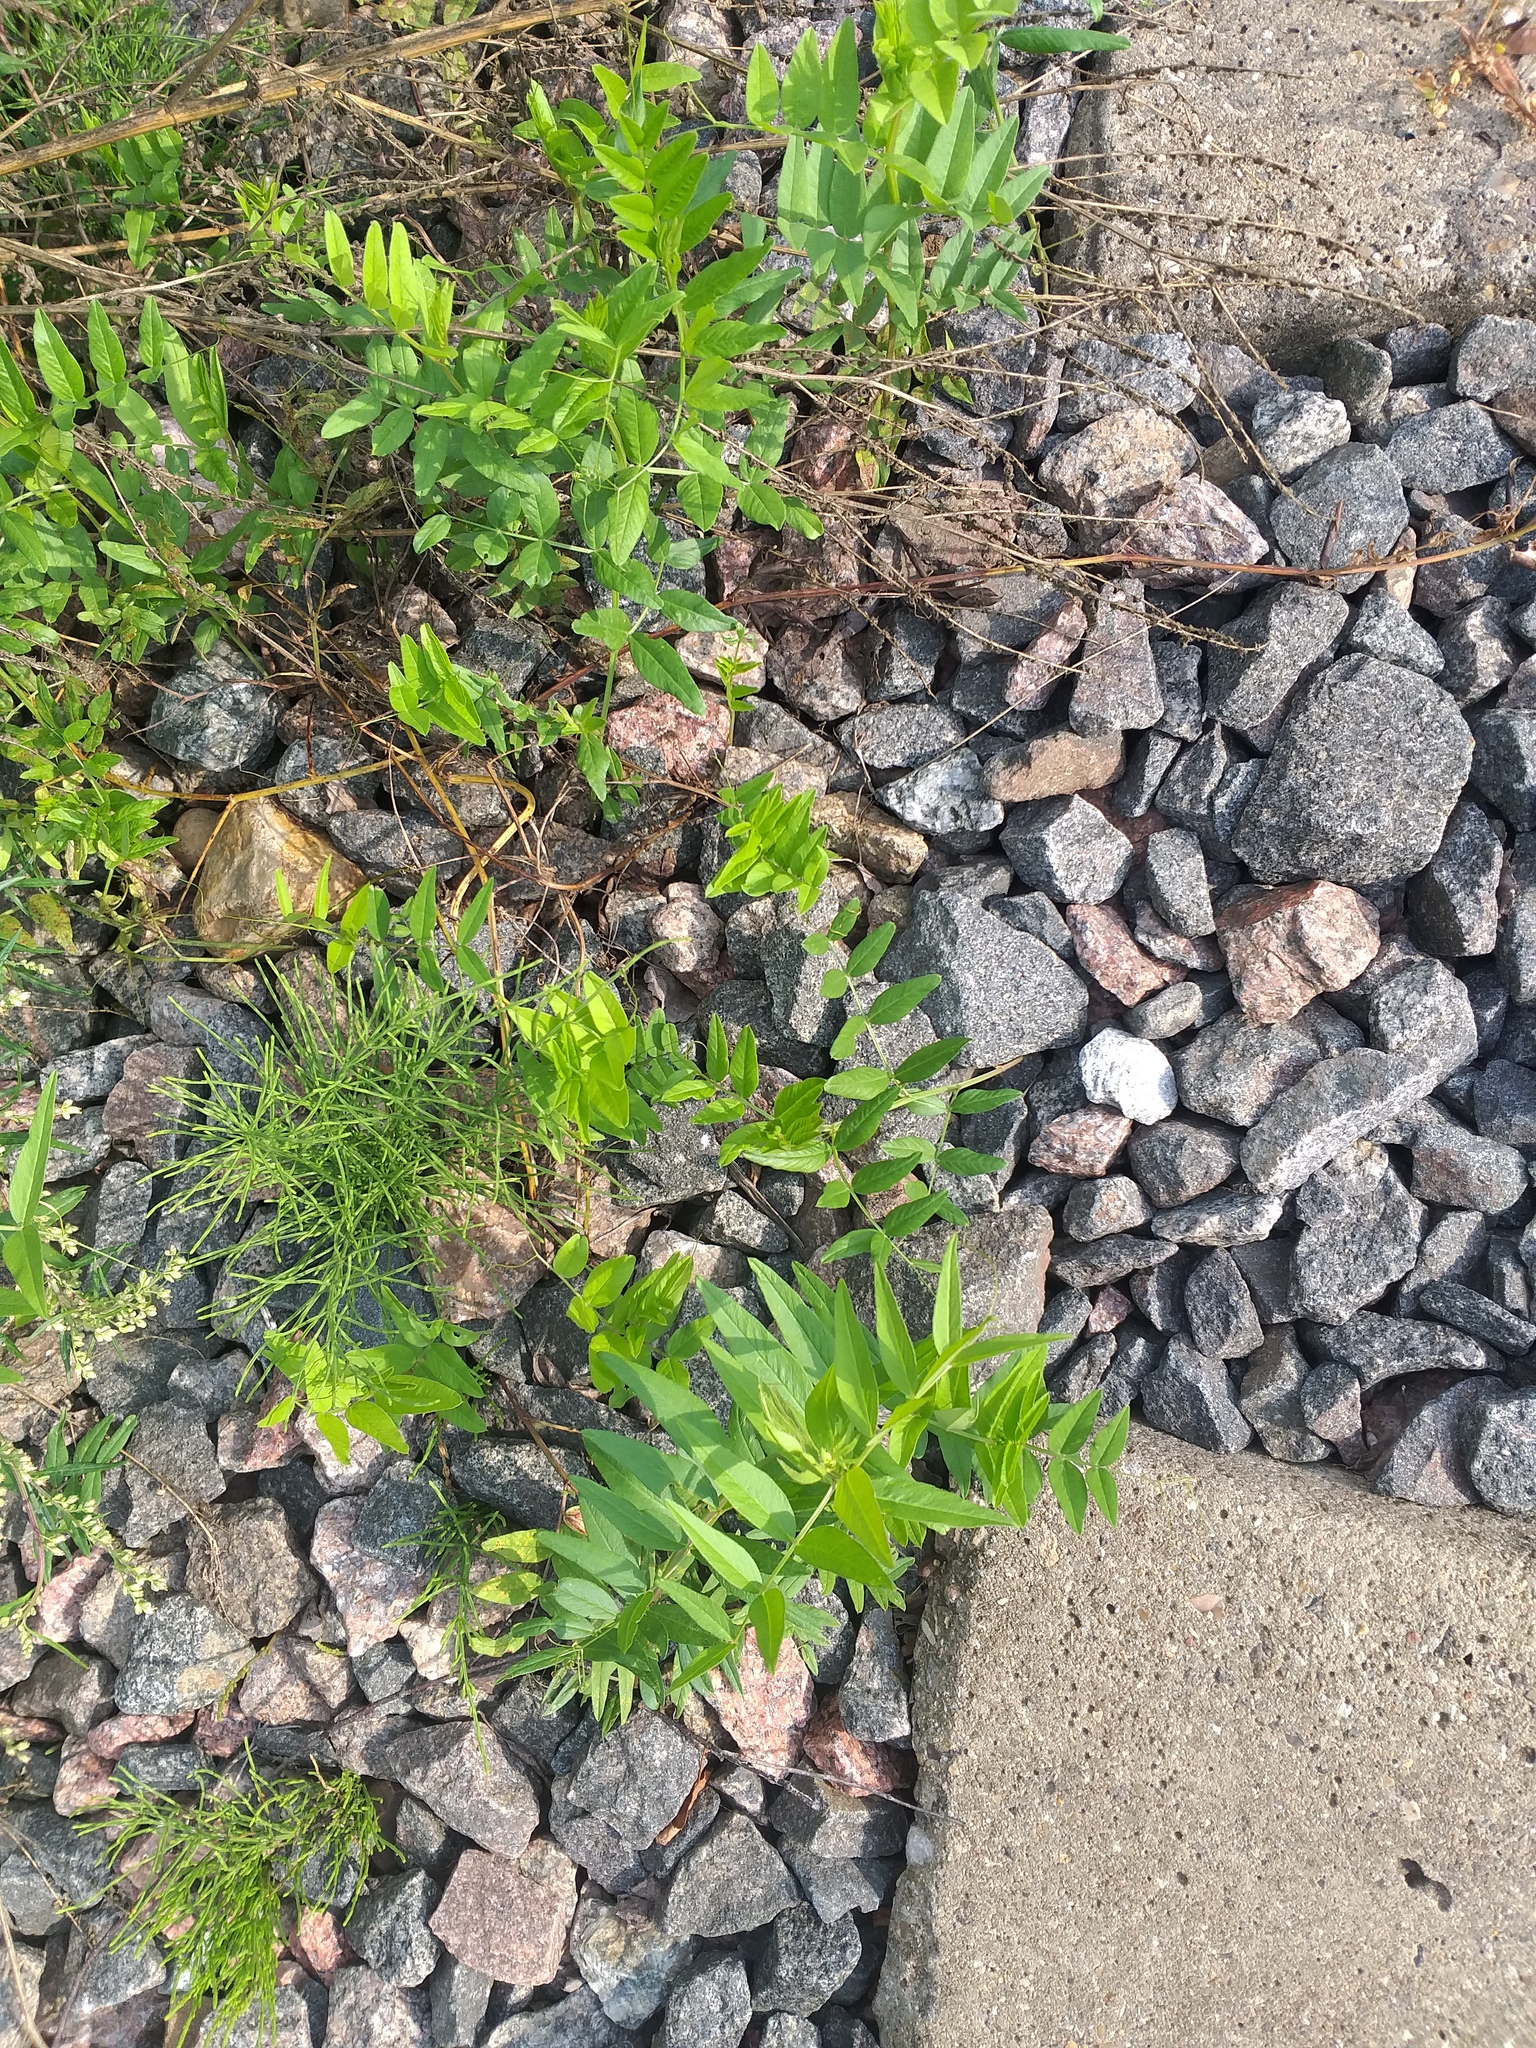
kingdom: Plantae
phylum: Tracheophyta
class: Magnoliopsida
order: Fabales
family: Fabaceae
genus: Vicia
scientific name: Vicia sepium
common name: Bush vetch
